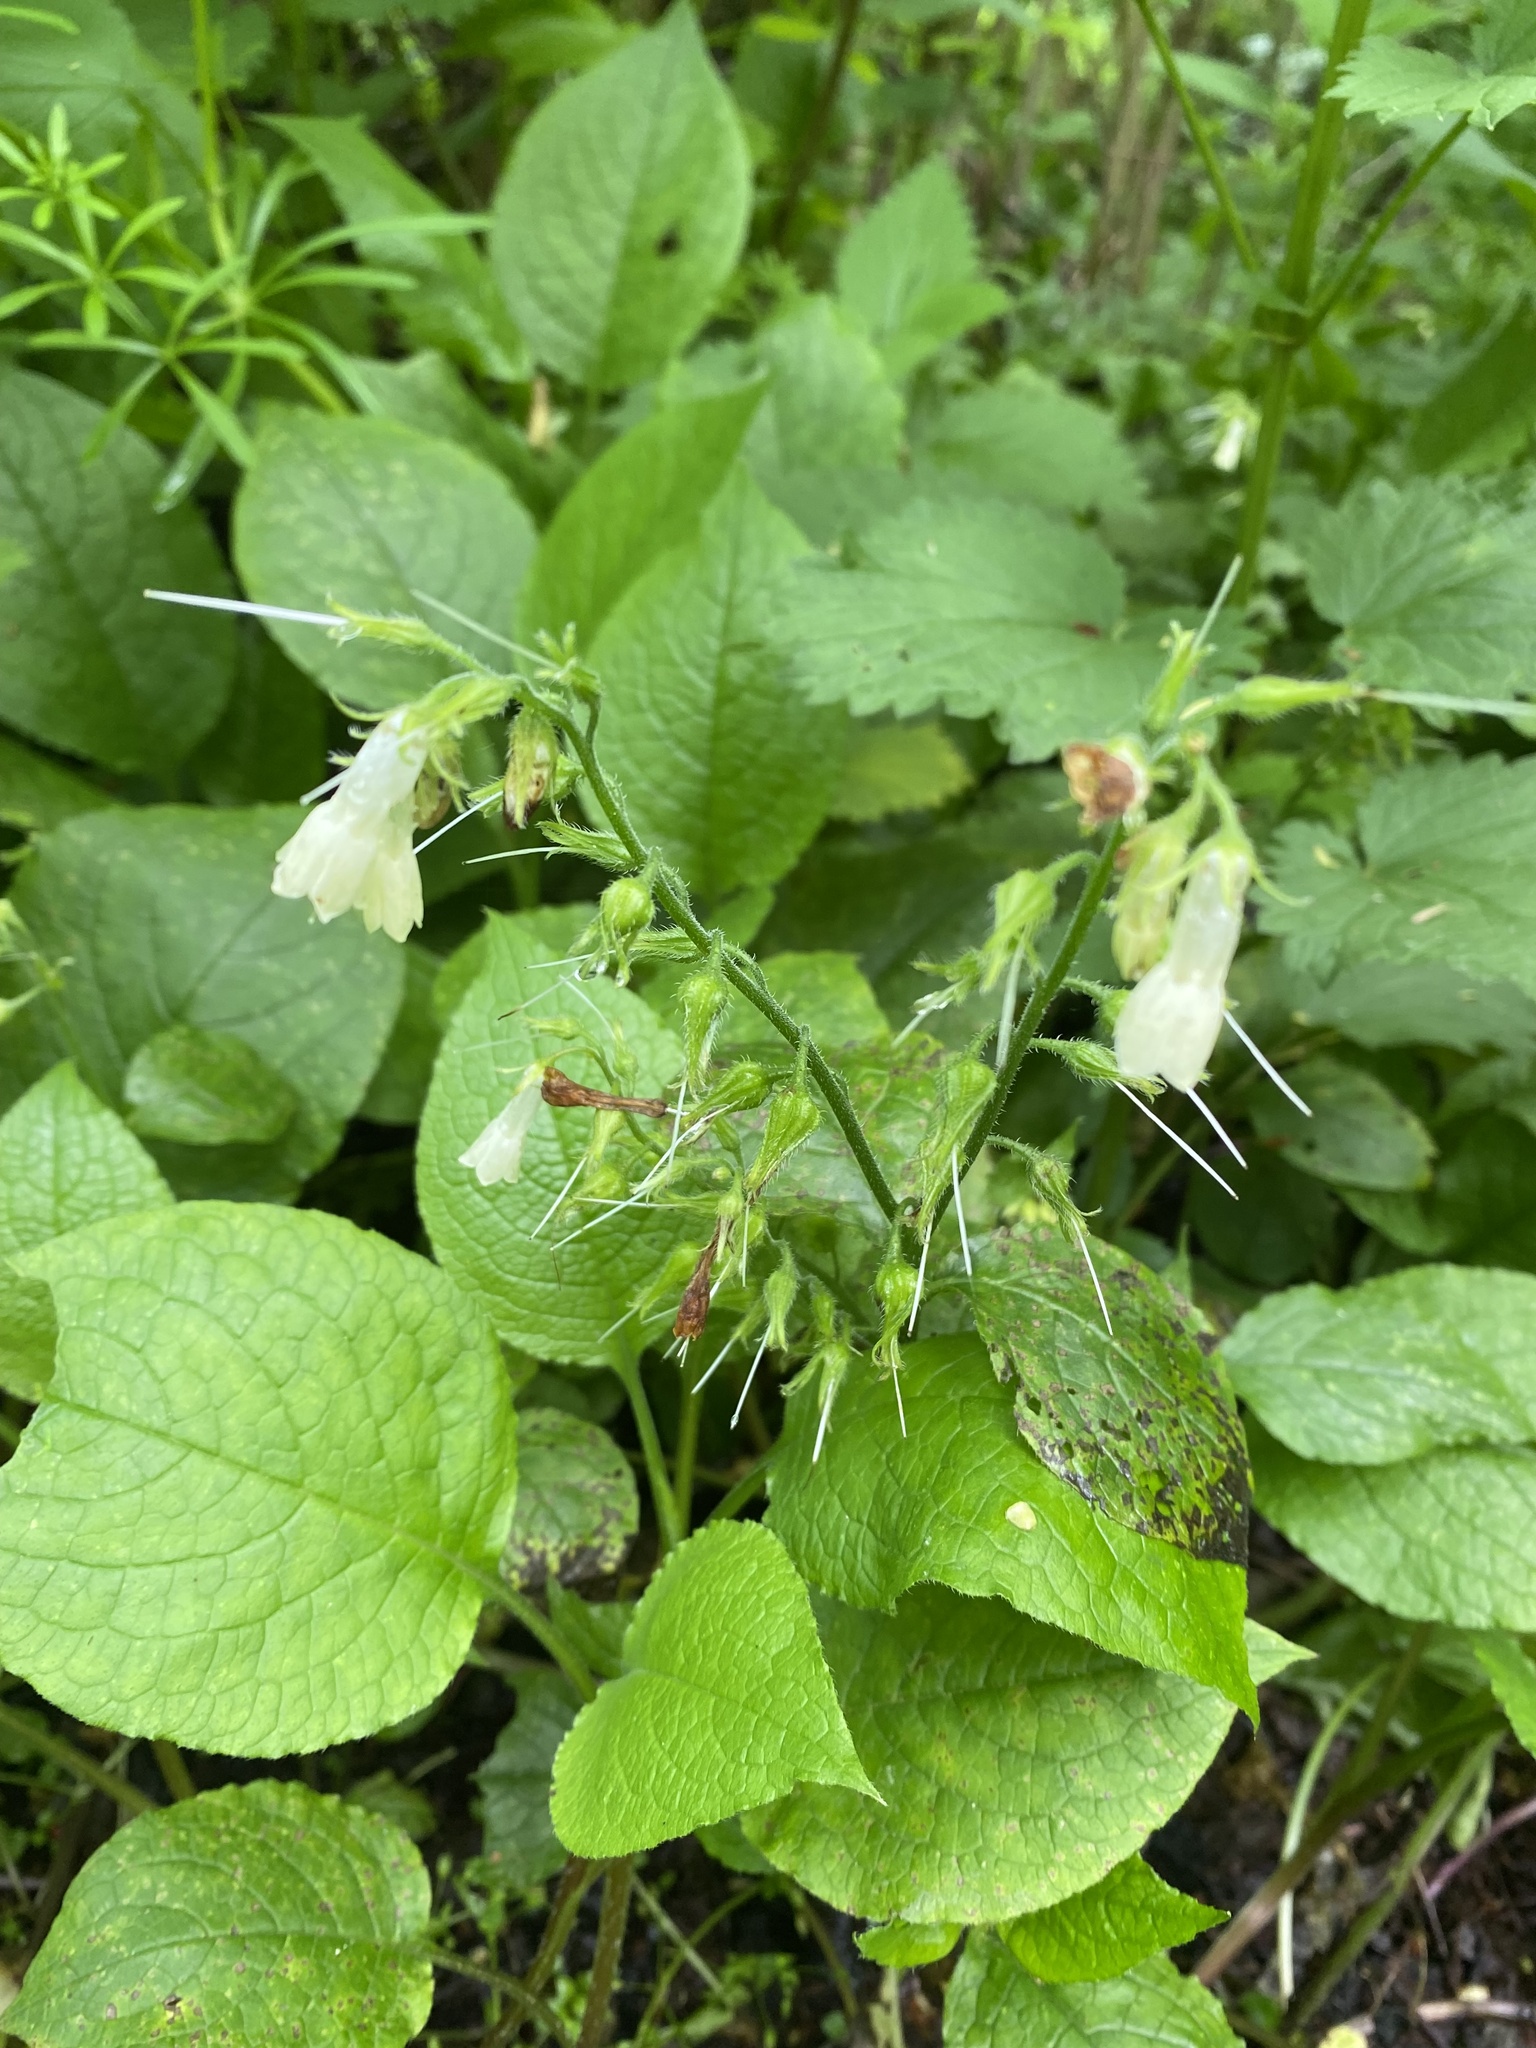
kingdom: Plantae
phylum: Tracheophyta
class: Magnoliopsida
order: Boraginales
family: Boraginaceae
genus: Symphytum
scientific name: Symphytum grandiflorum
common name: Creeping comfrey
